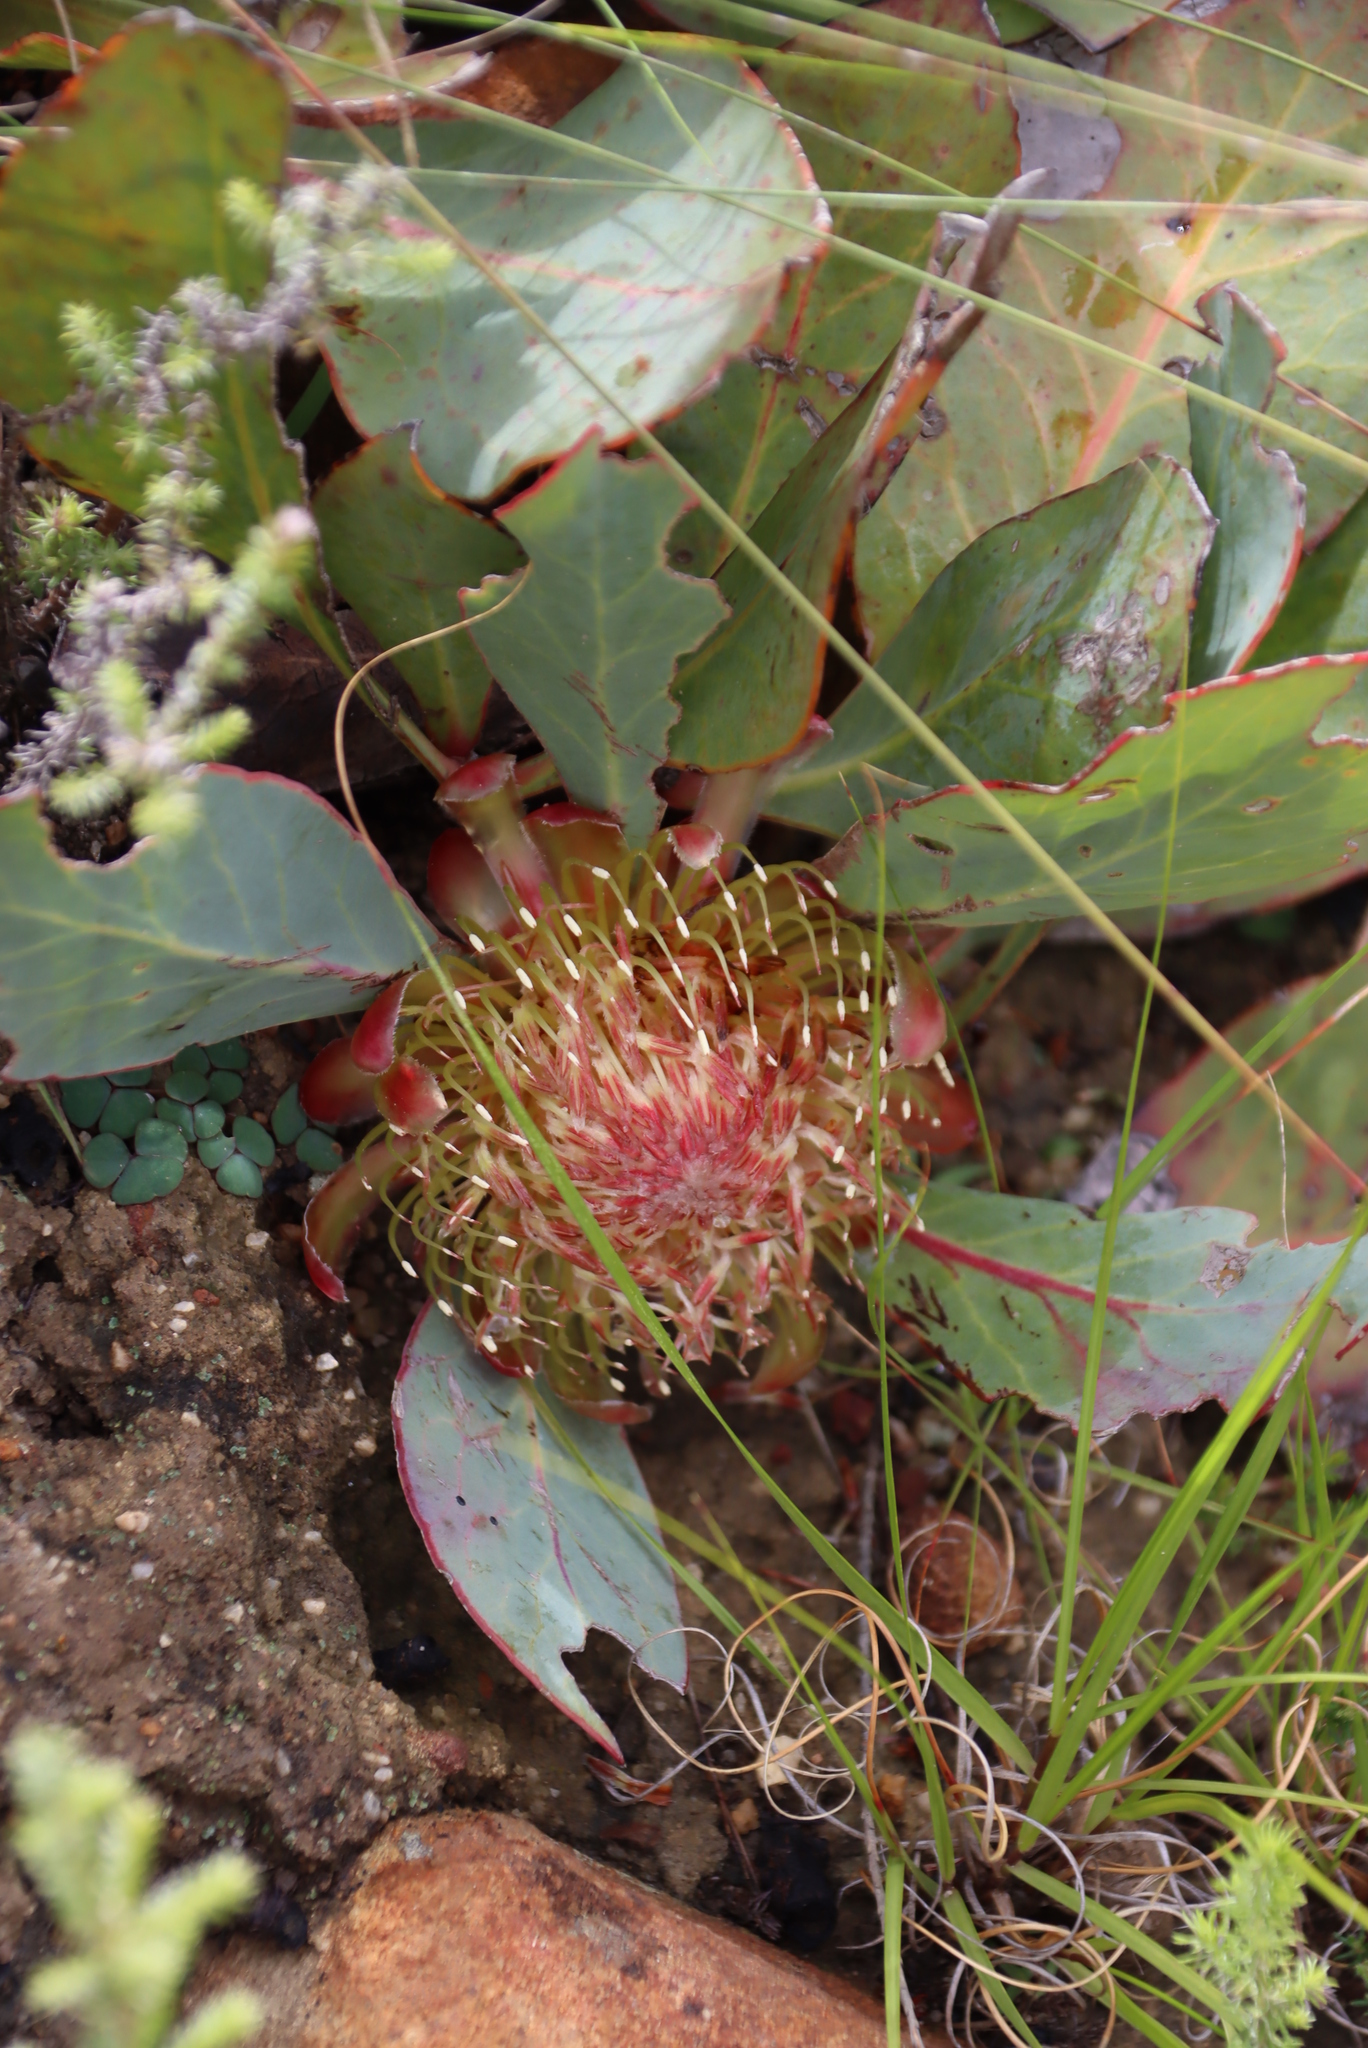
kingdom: Plantae
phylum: Tracheophyta
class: Magnoliopsida
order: Proteales
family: Proteaceae
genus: Protea
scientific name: Protea acaulos
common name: Common ground sugarbush
